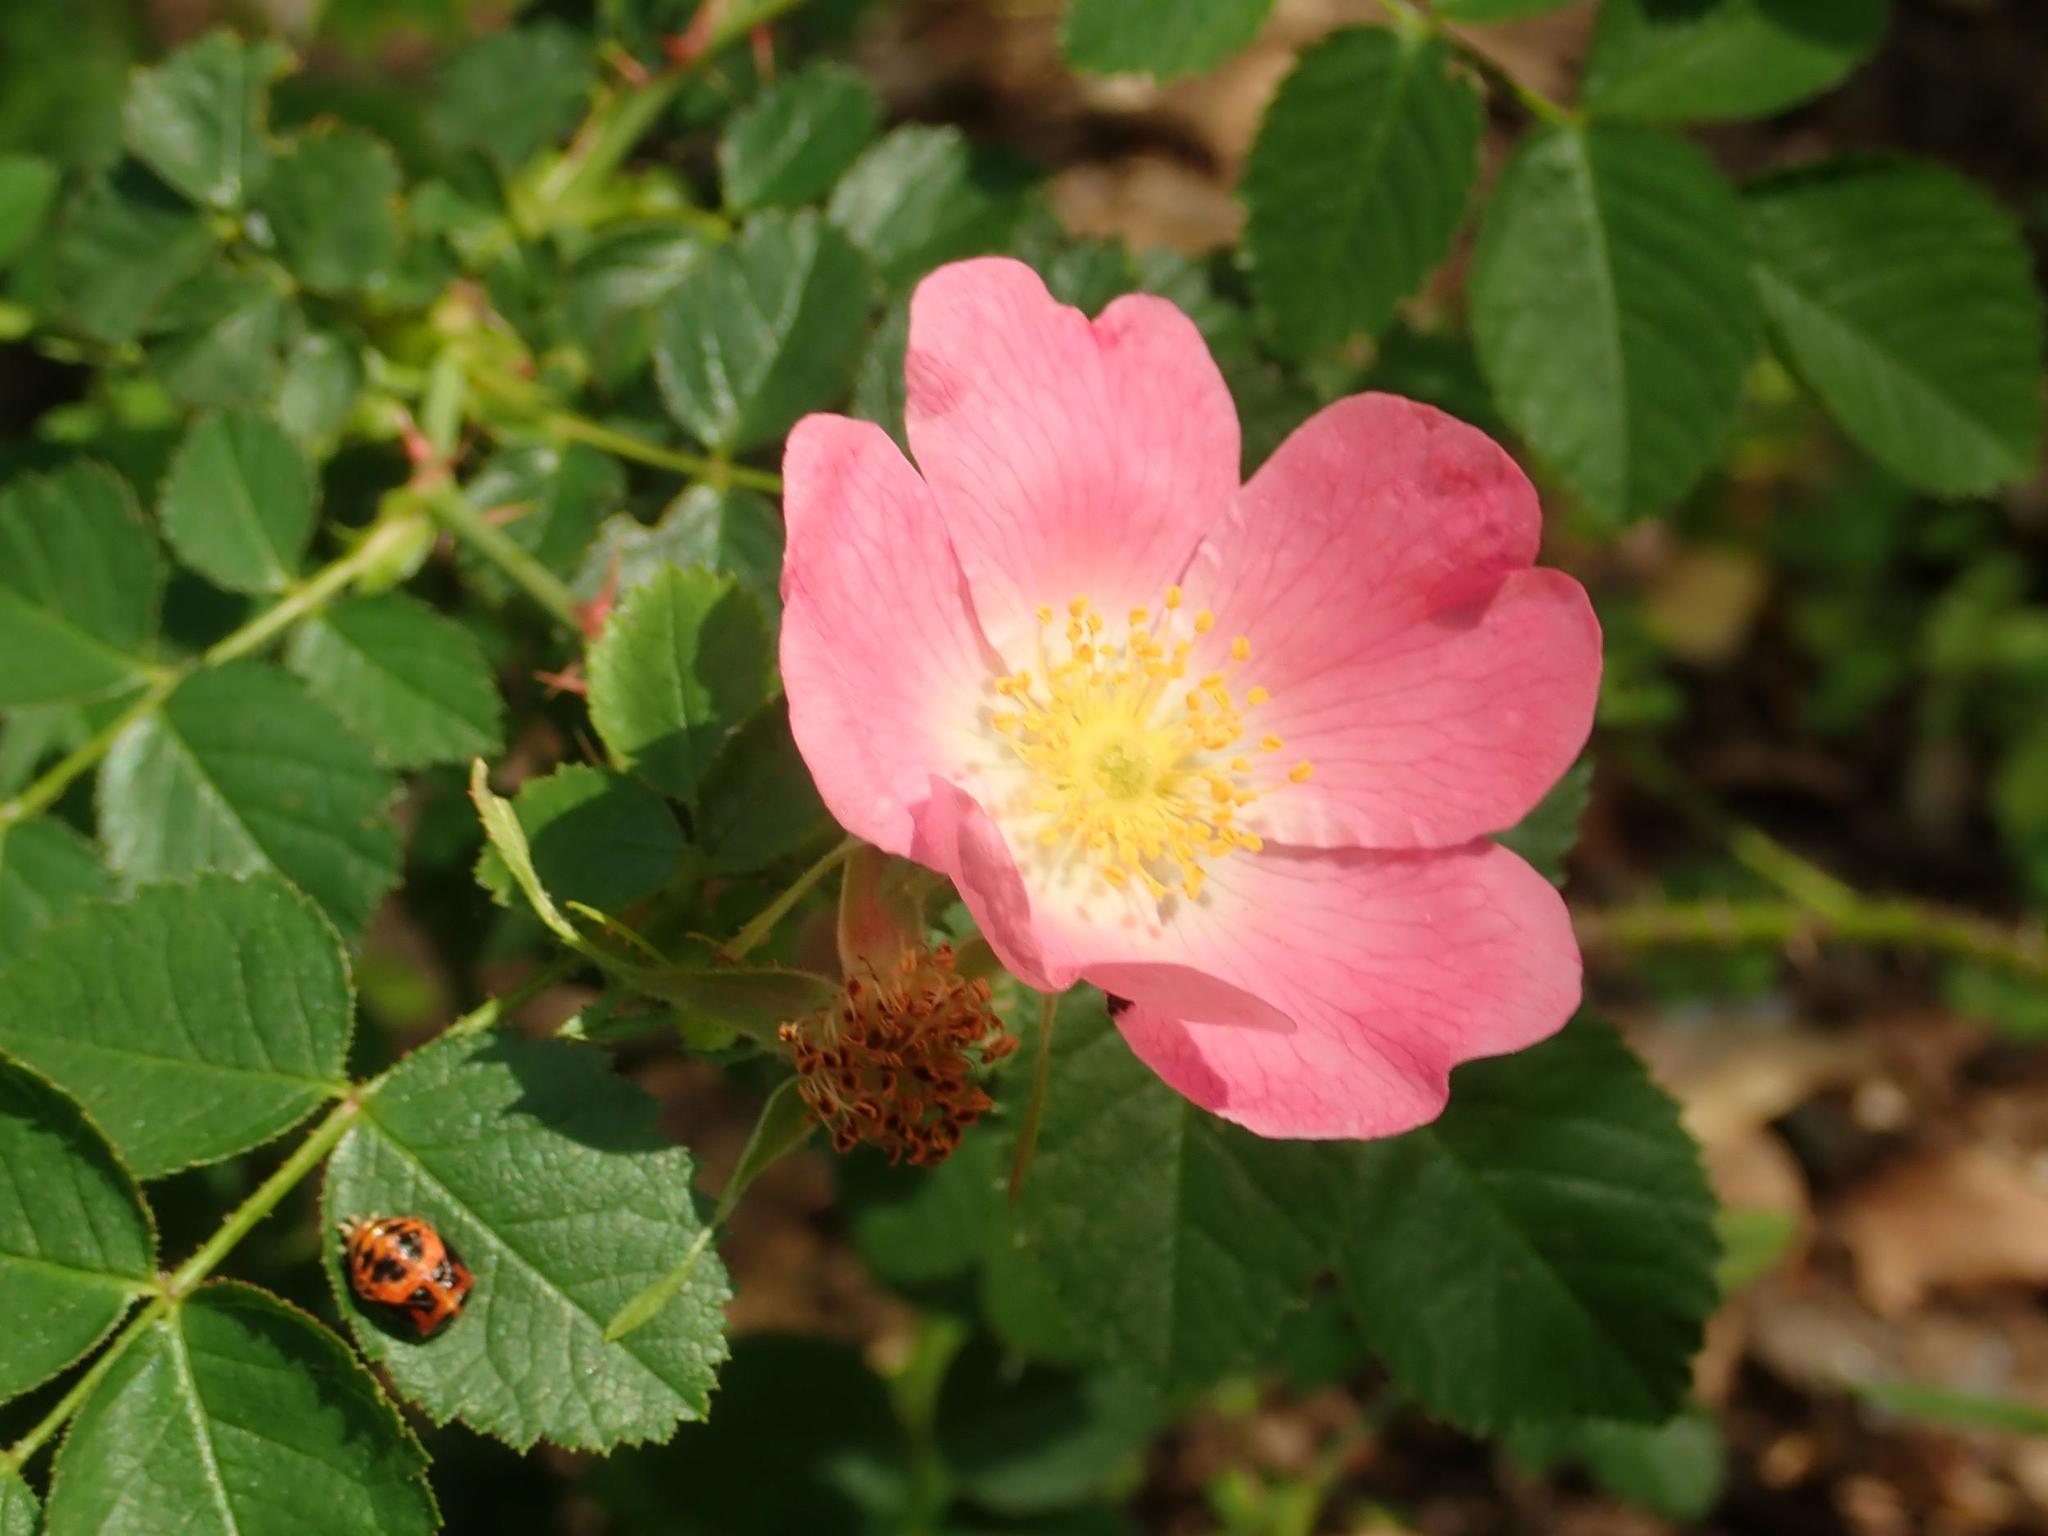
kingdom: Plantae
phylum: Tracheophyta
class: Magnoliopsida
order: Rosales
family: Rosaceae
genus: Rosa
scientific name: Rosa canina
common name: Dog rose
